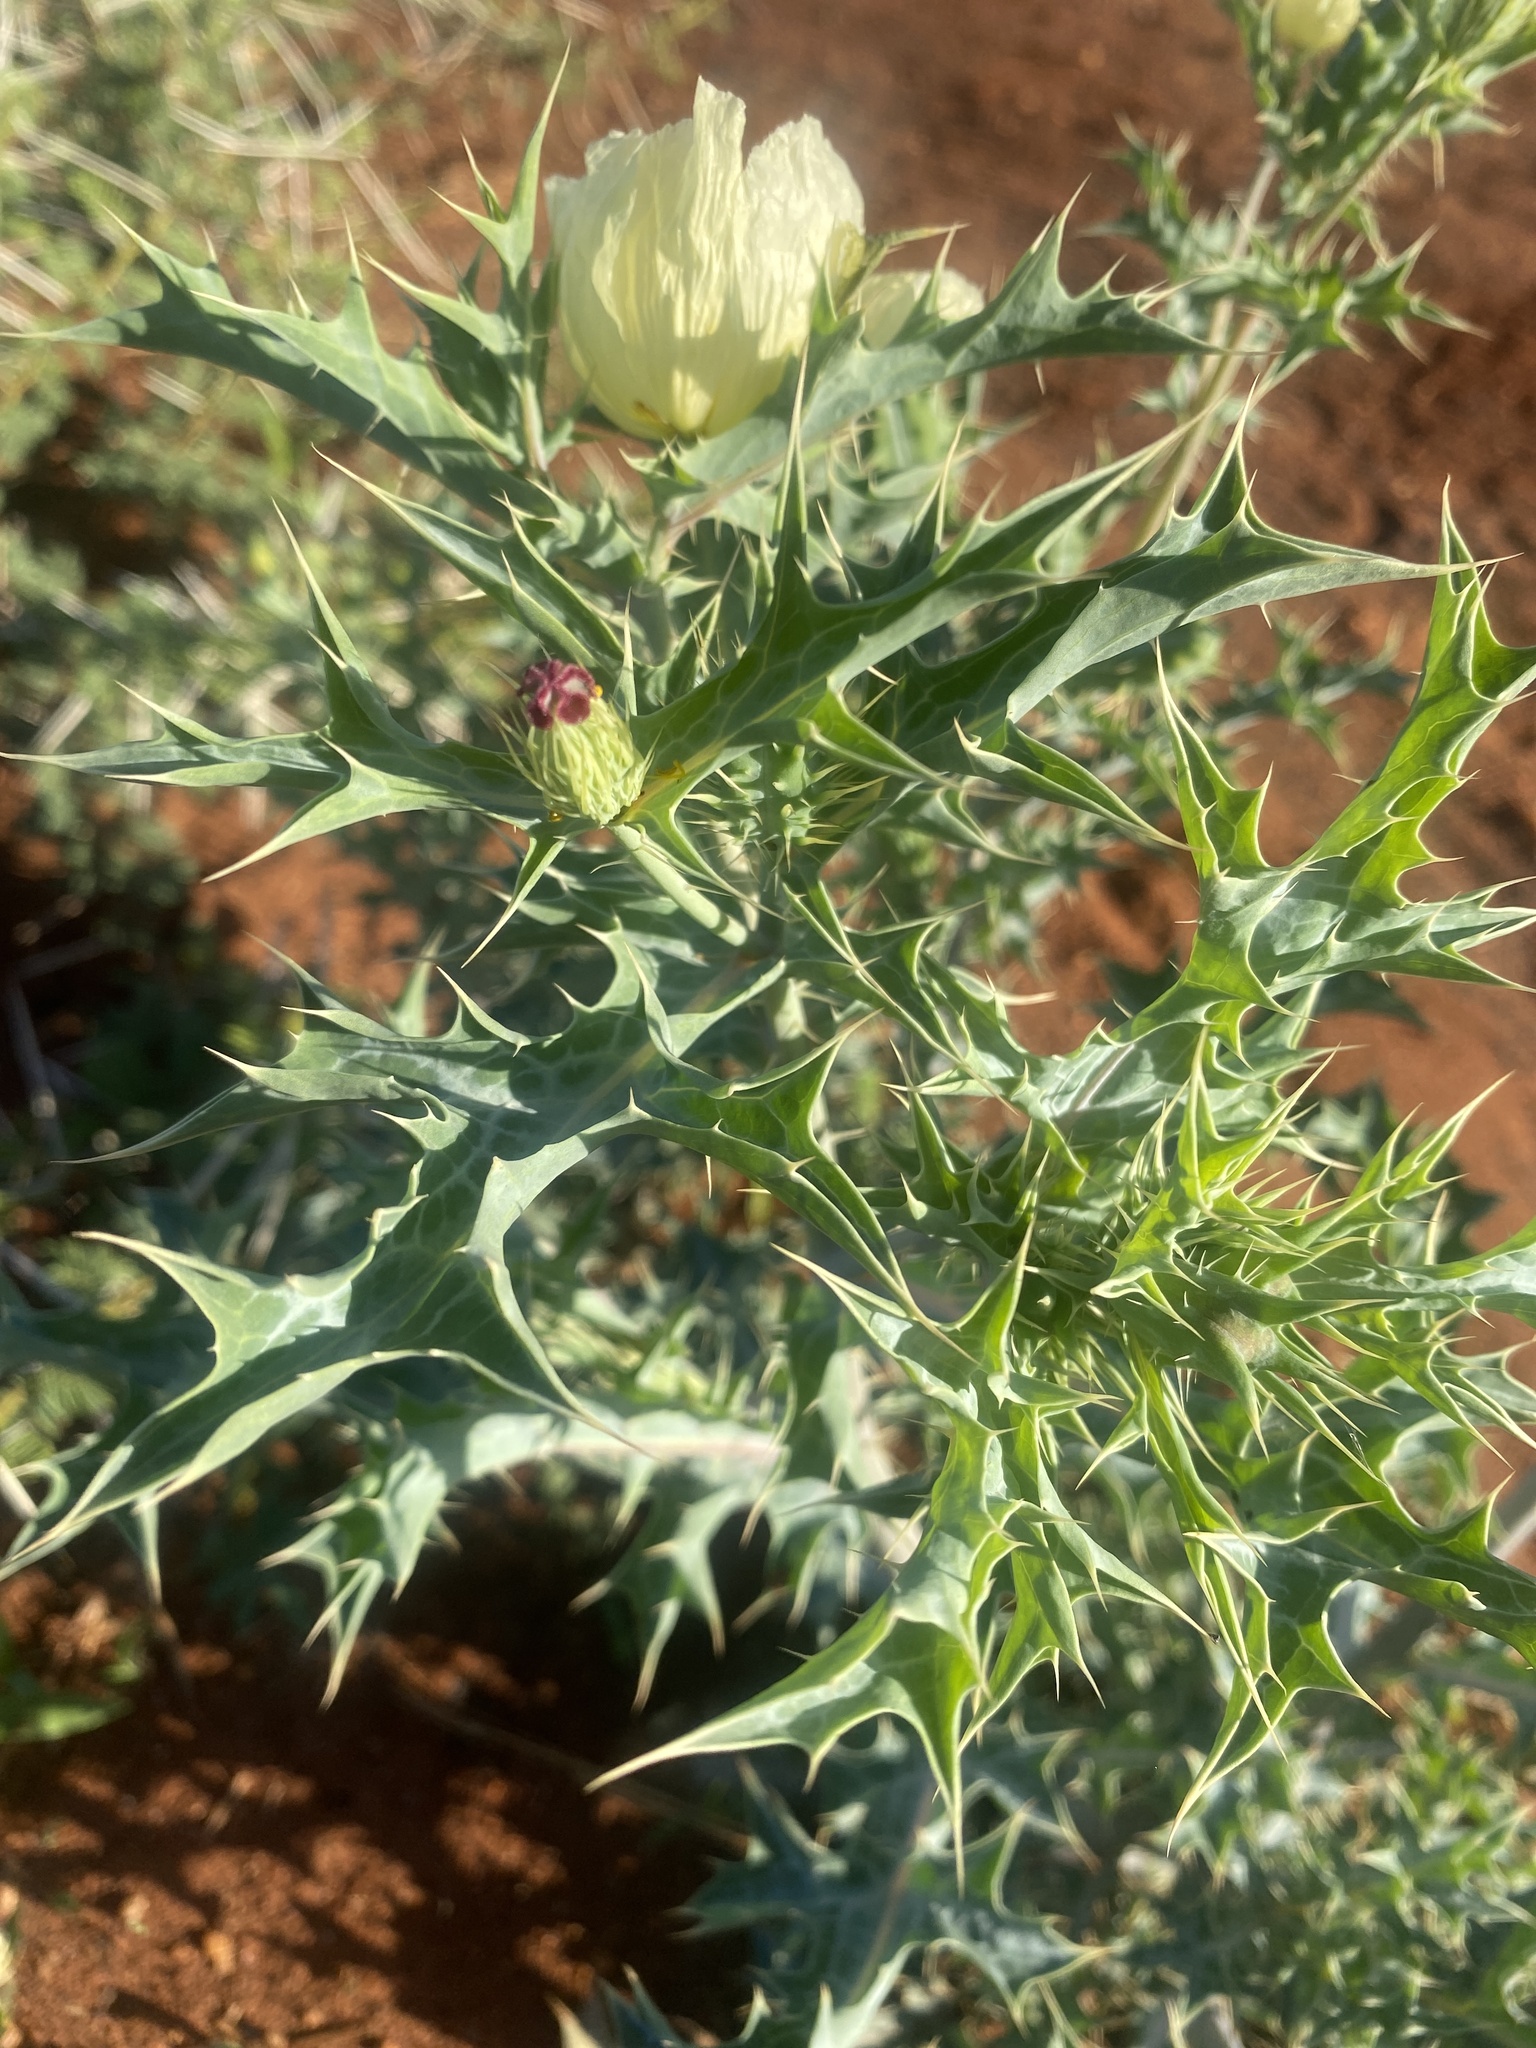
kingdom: Plantae
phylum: Tracheophyta
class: Magnoliopsida
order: Ranunculales
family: Papaveraceae
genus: Argemone
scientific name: Argemone ochroleuca
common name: White-flower mexican-poppy
